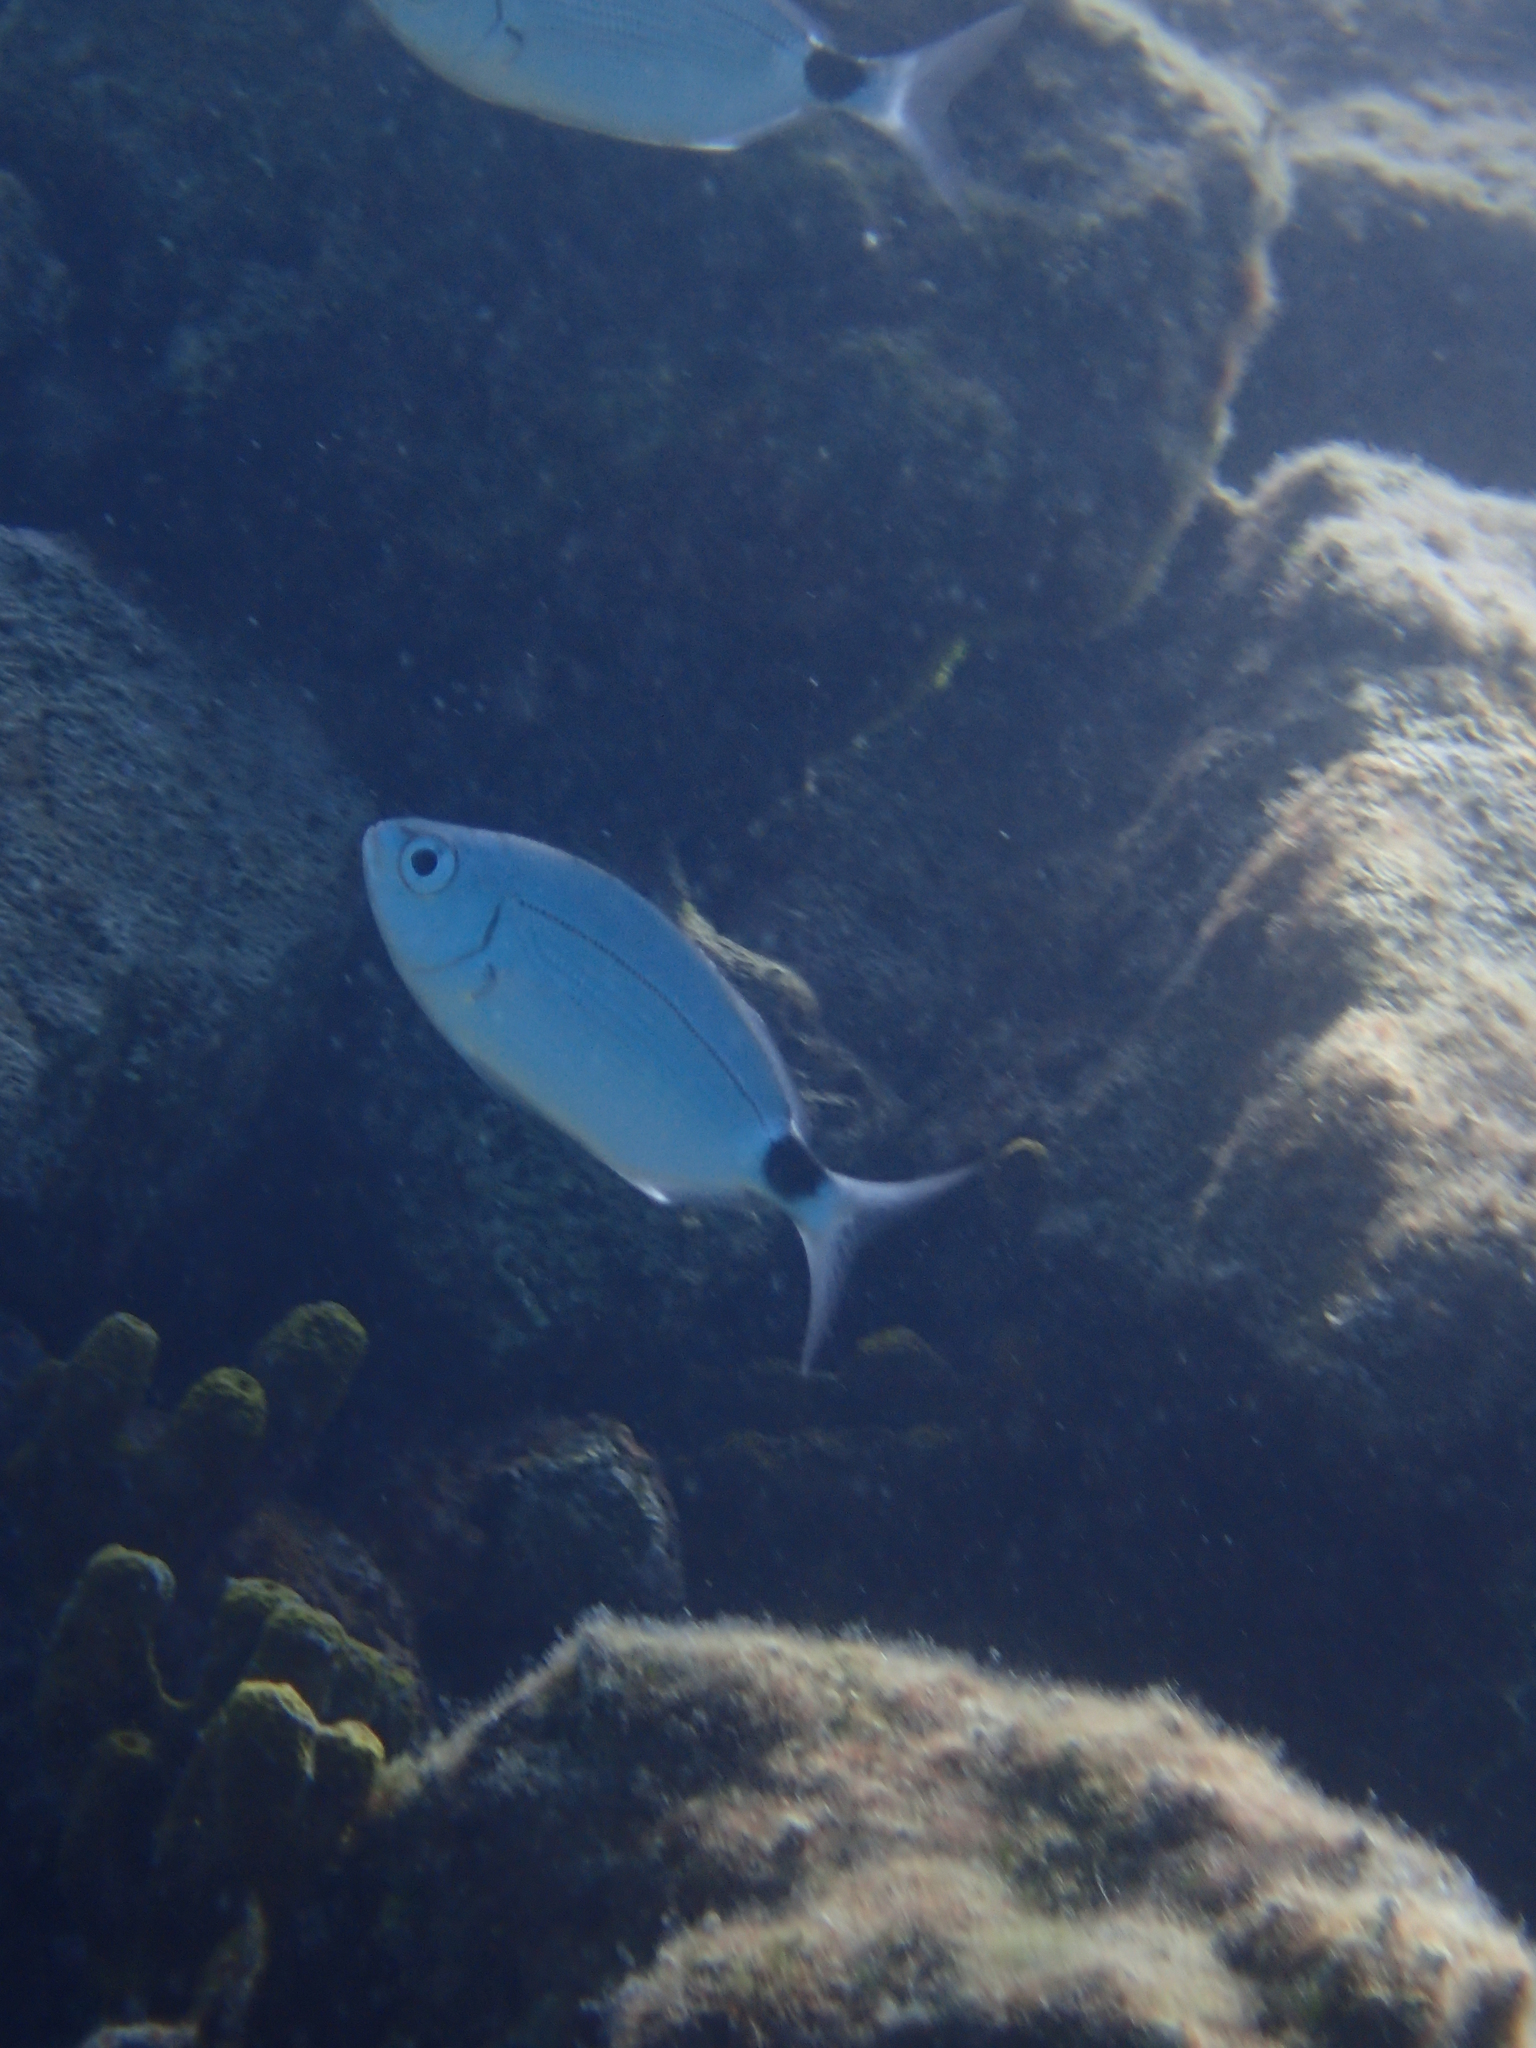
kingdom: Animalia
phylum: Chordata
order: Perciformes
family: Sparidae
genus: Oblada
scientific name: Oblada melanura
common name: Saddled seabream
